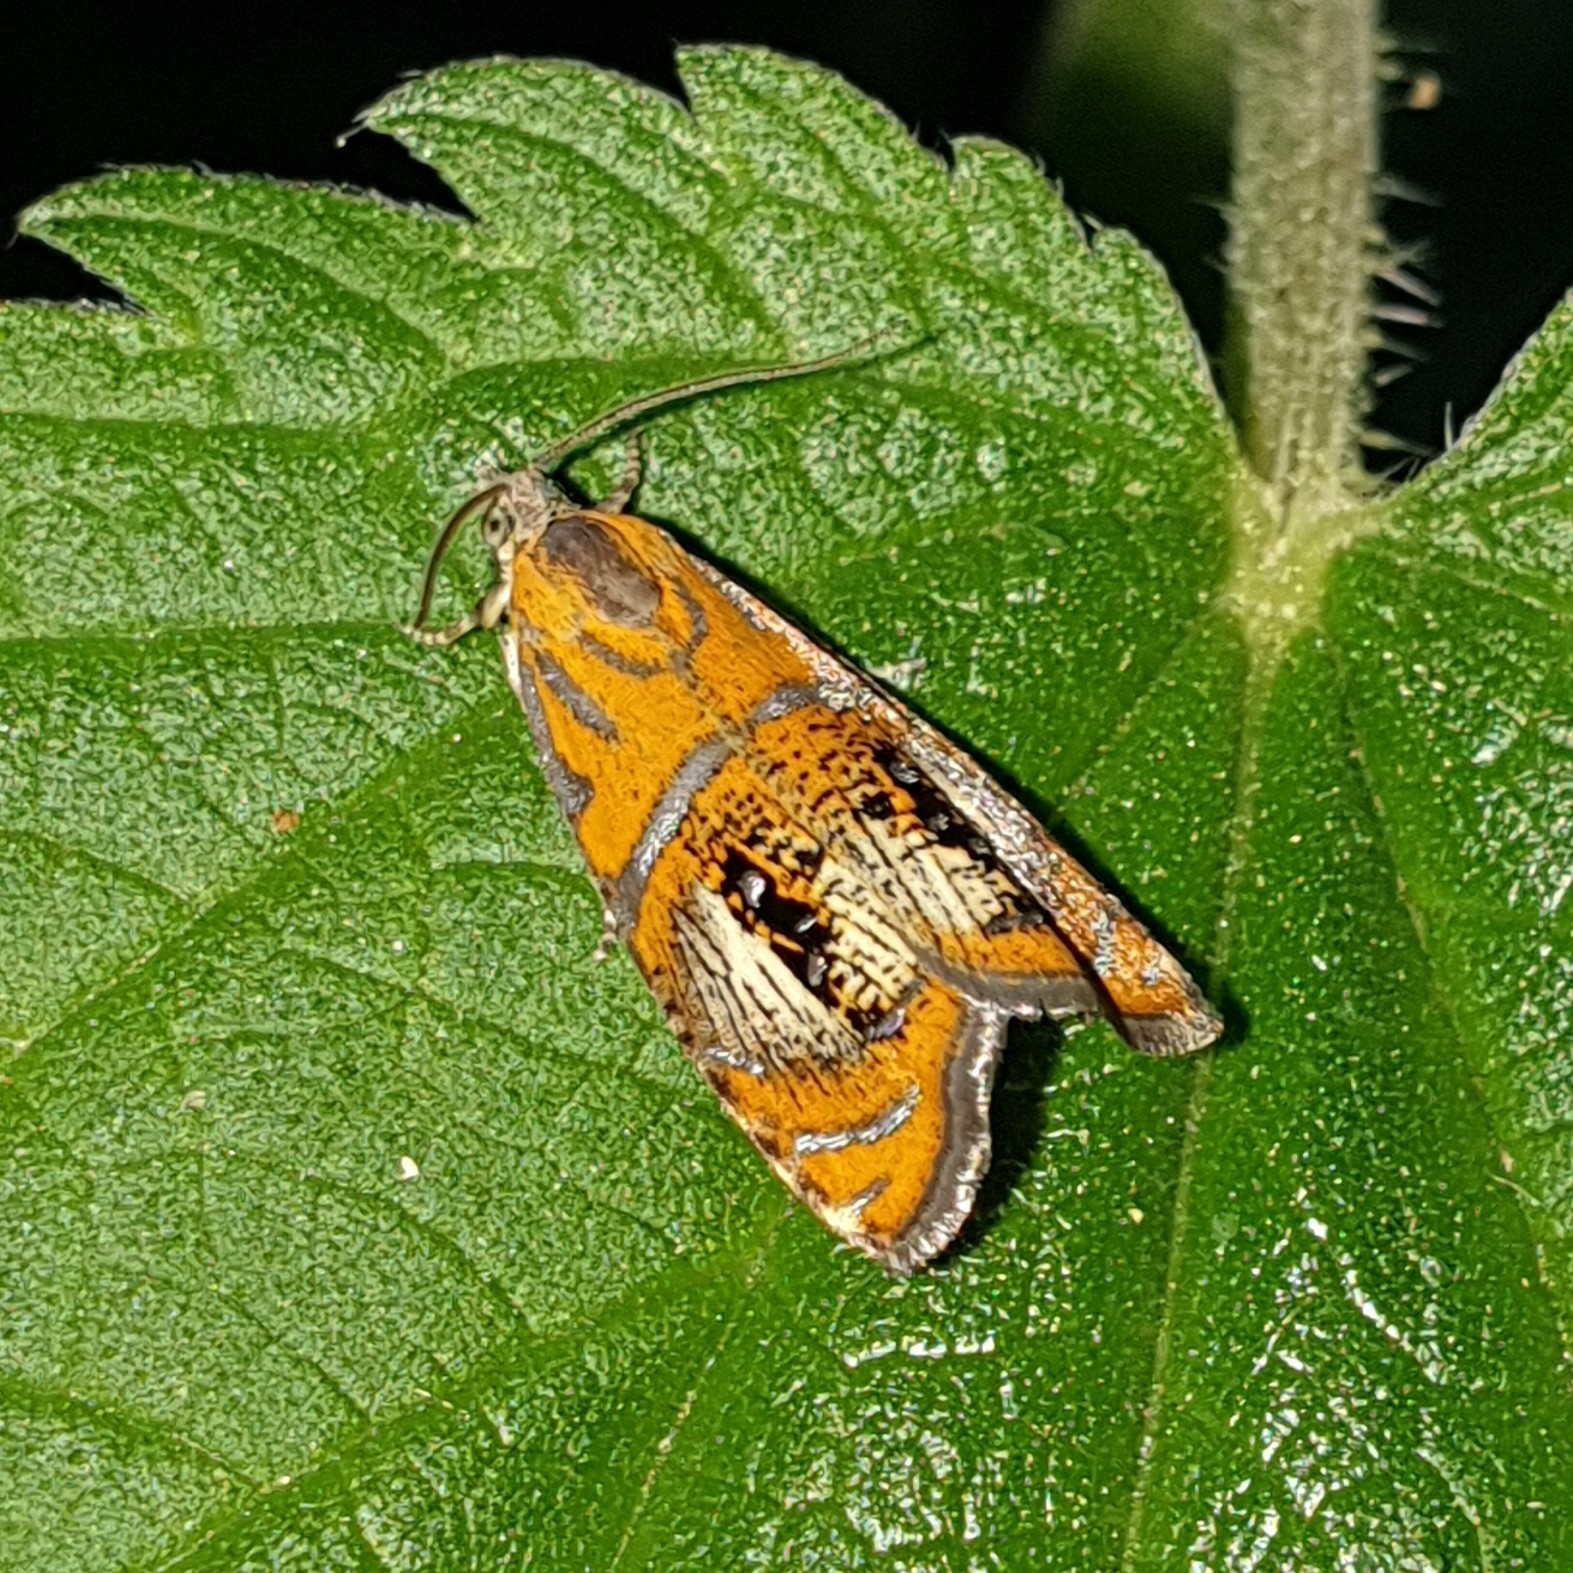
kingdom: Animalia
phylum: Arthropoda
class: Insecta
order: Lepidoptera
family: Tortricidae
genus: Olethreutes
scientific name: Olethreutes arcuella
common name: Arched marble
